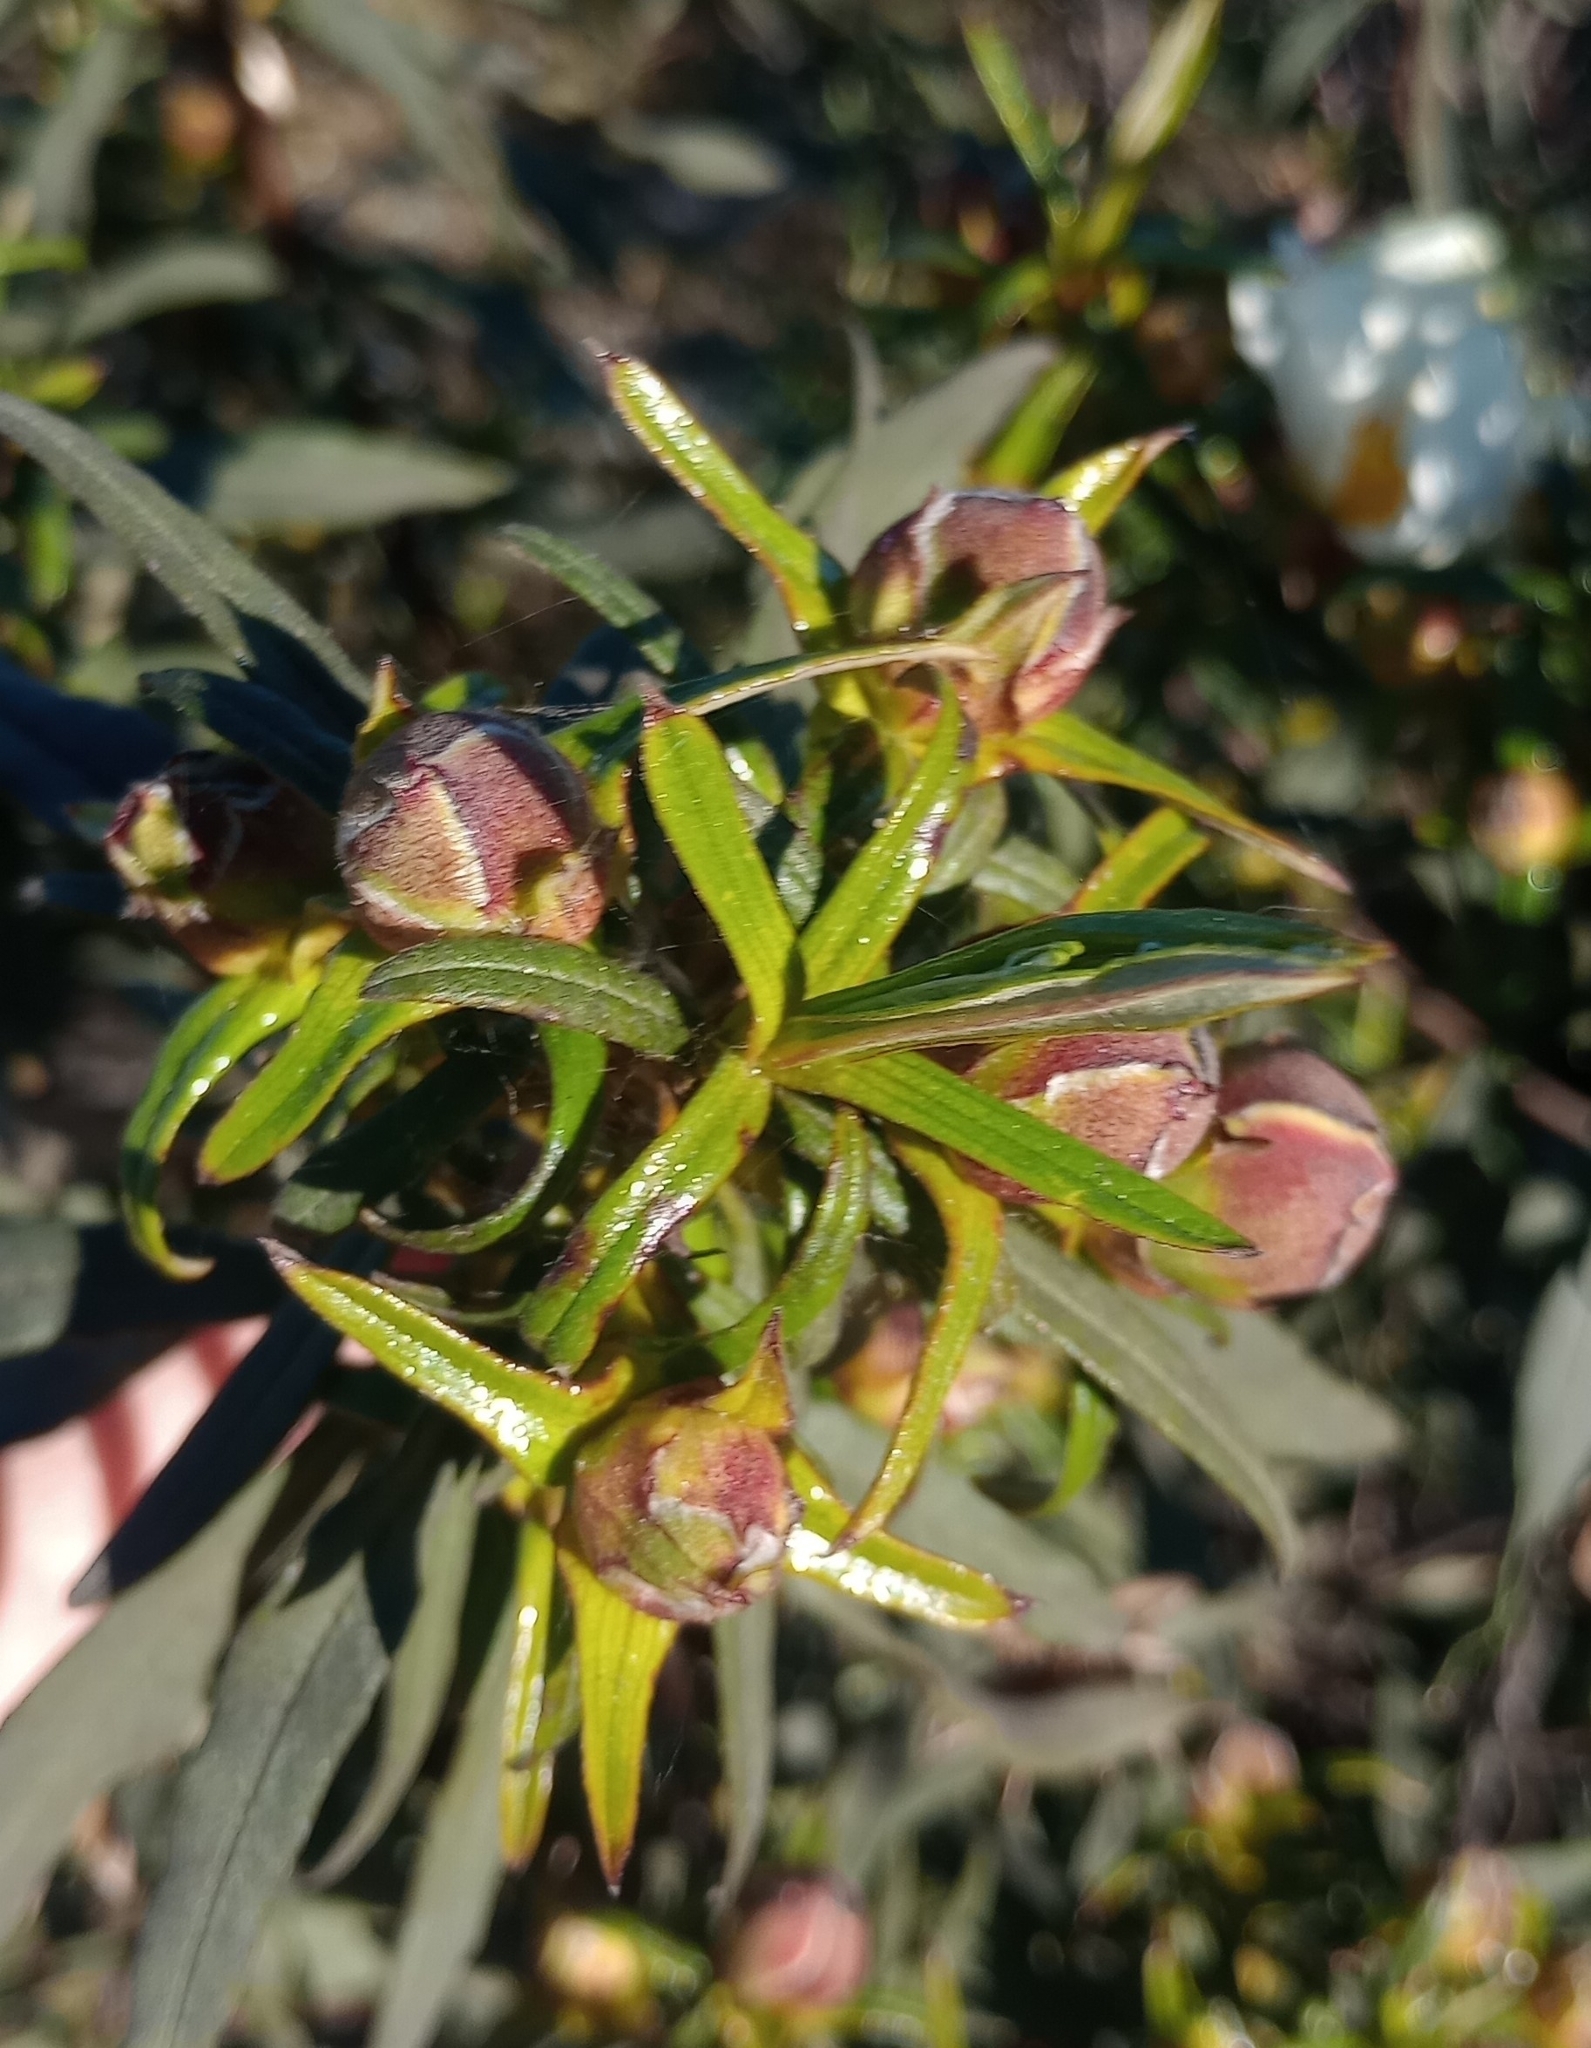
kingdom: Plantae
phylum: Tracheophyta
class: Magnoliopsida
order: Malvales
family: Cistaceae
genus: Cistus
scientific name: Cistus ladanifer
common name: Common gum cistus
